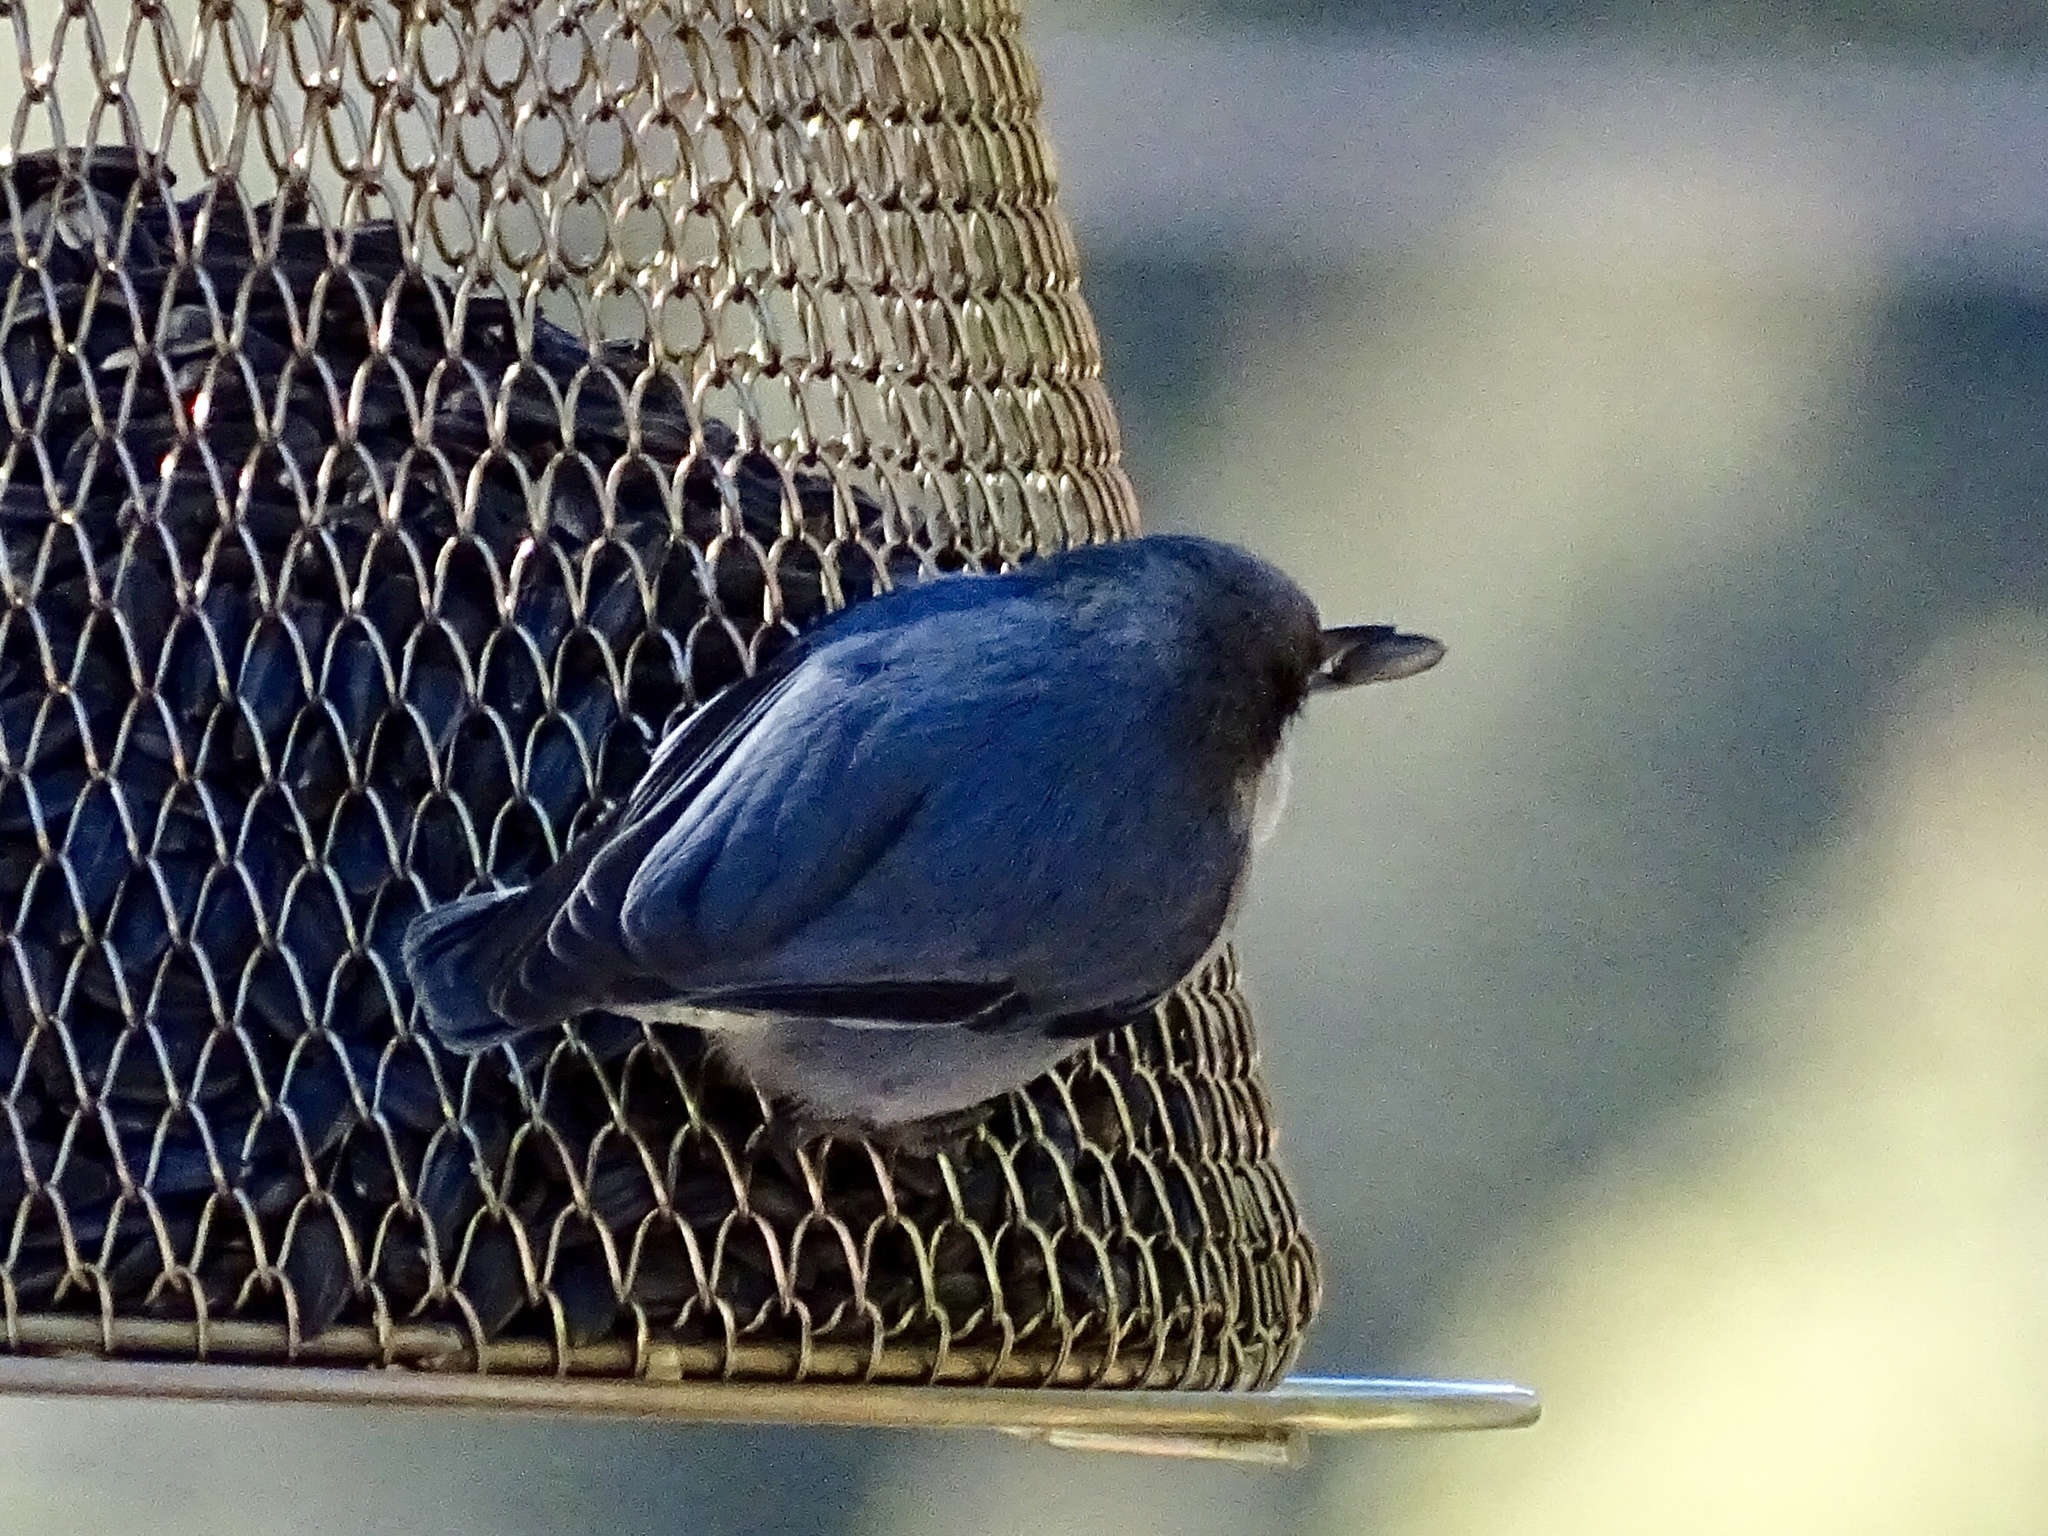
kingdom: Animalia
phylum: Chordata
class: Aves
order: Passeriformes
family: Sittidae
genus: Sitta
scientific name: Sitta pygmaea
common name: Pygmy nuthatch
